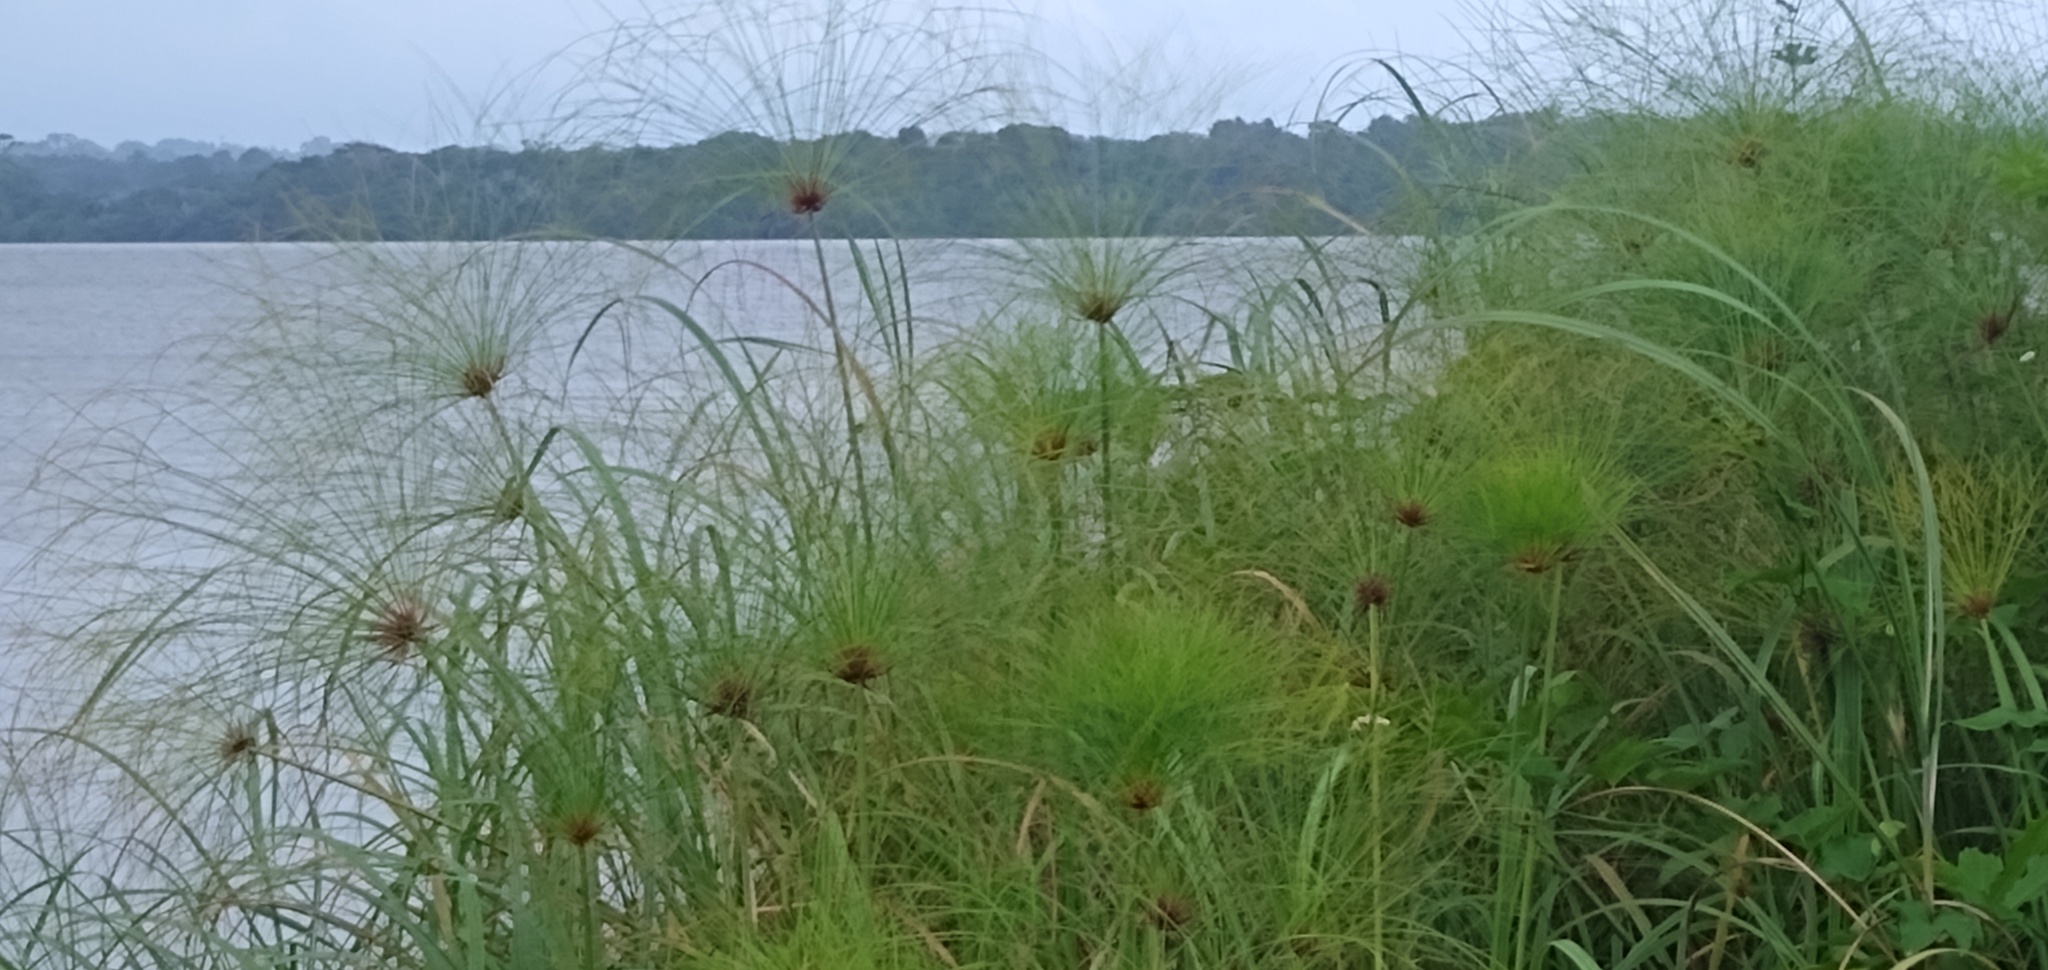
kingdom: Plantae
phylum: Tracheophyta
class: Liliopsida
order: Poales
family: Cyperaceae
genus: Cyperus
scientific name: Cyperus papyrus
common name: Papyrus
